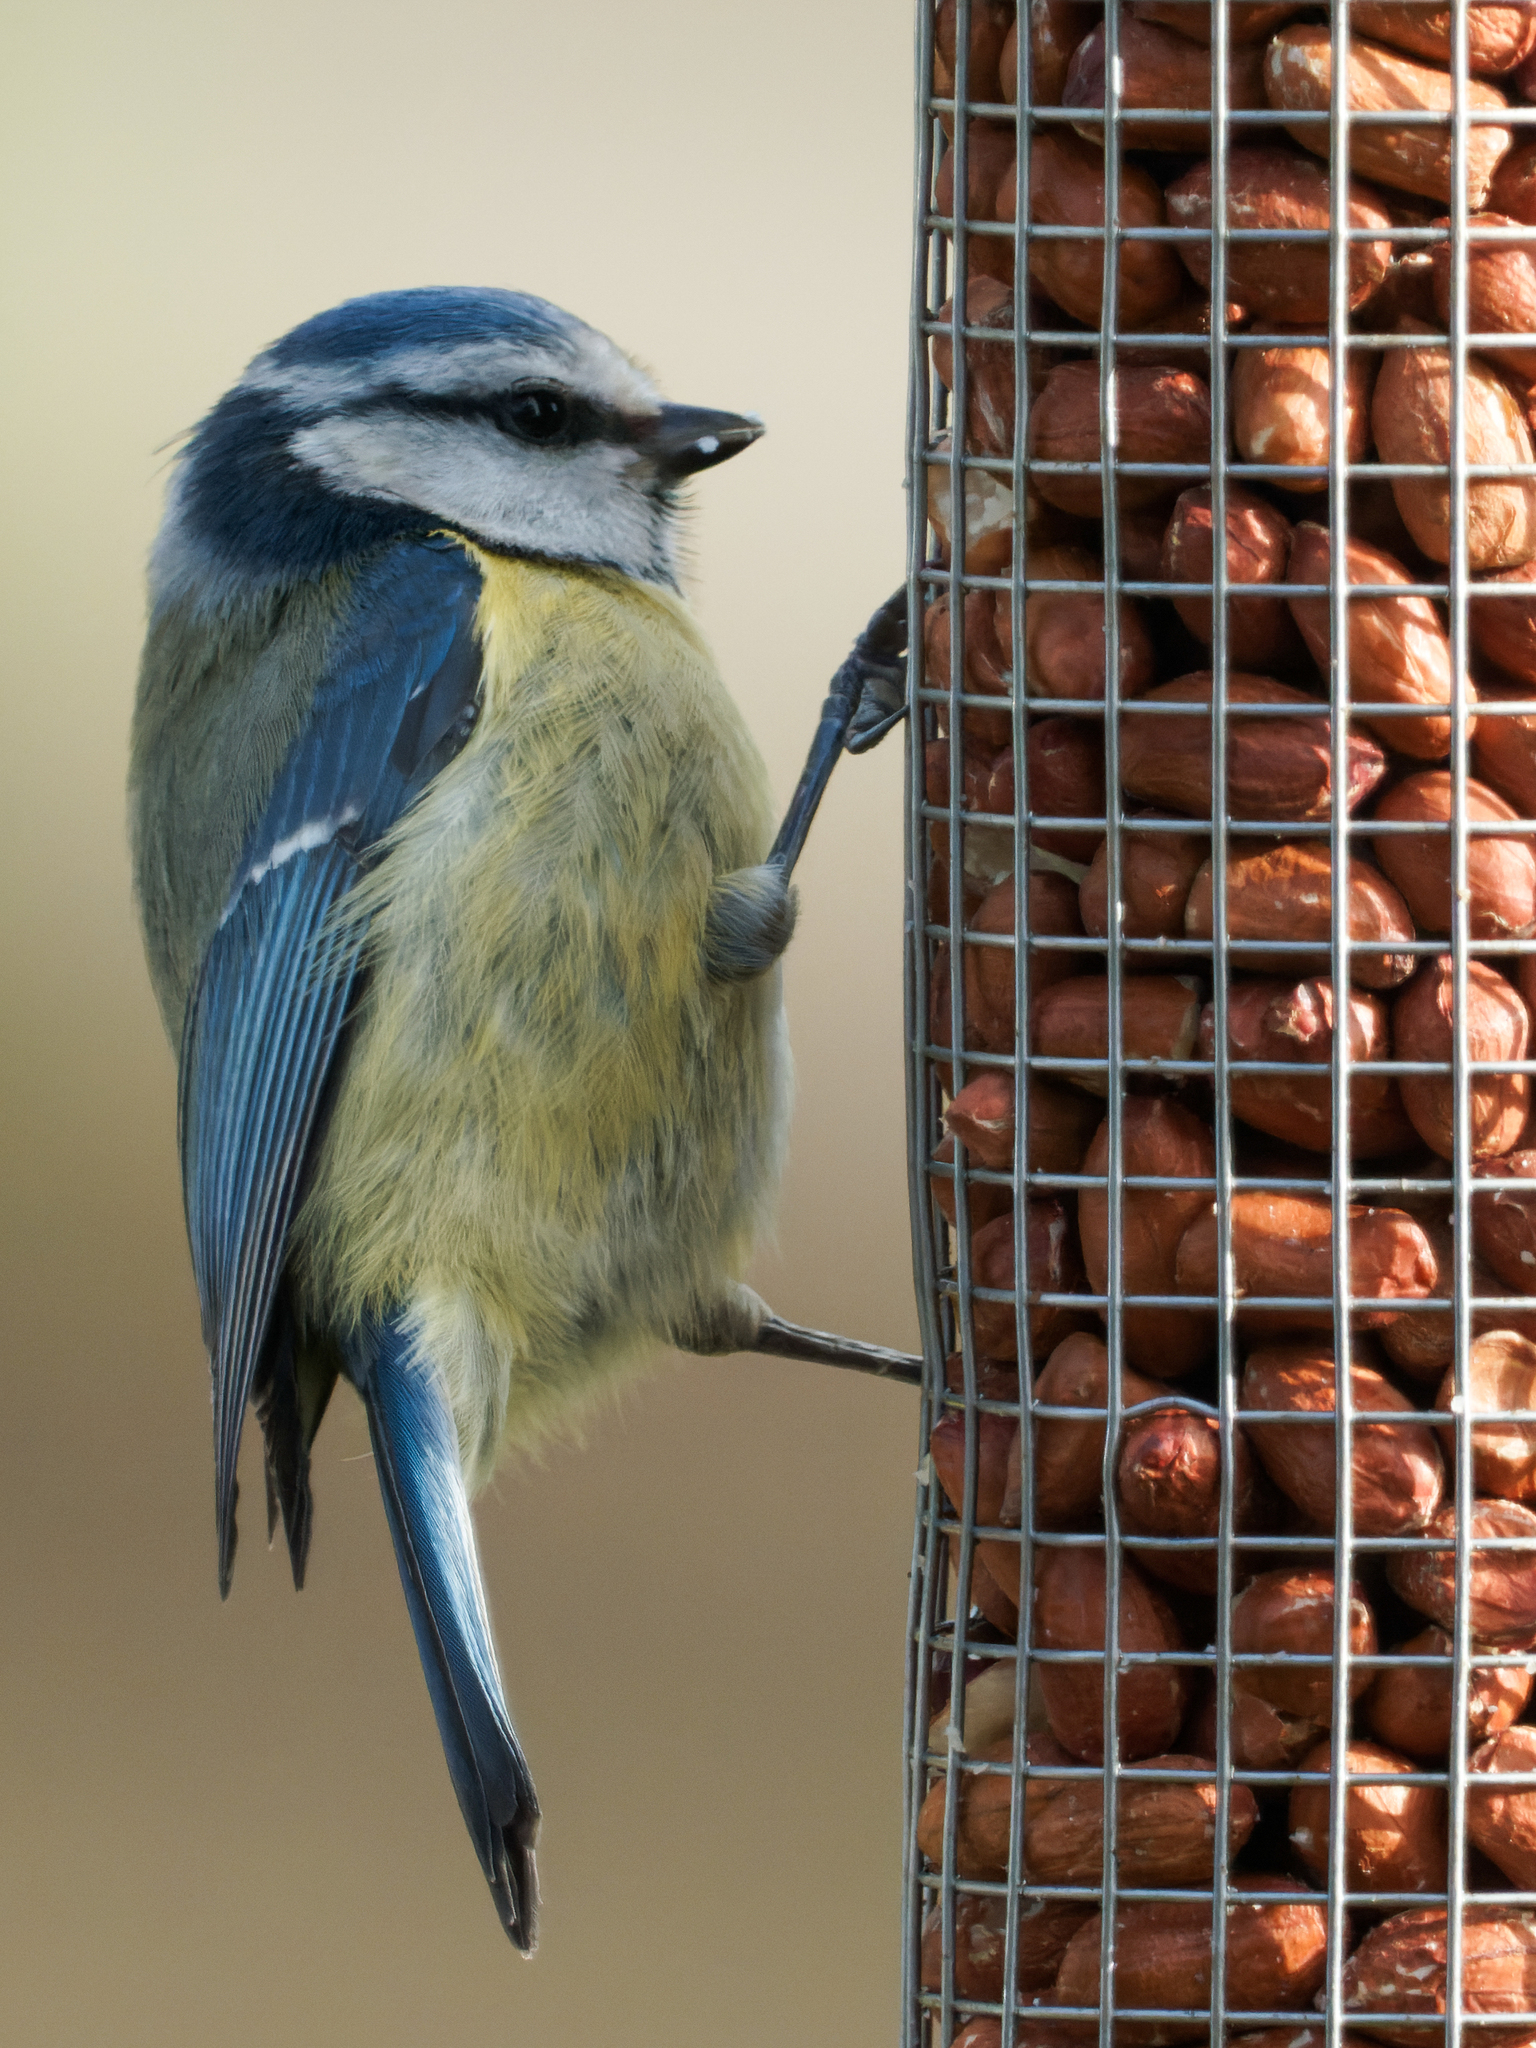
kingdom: Animalia
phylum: Chordata
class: Aves
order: Passeriformes
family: Paridae
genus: Cyanistes
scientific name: Cyanistes caeruleus
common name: Eurasian blue tit
